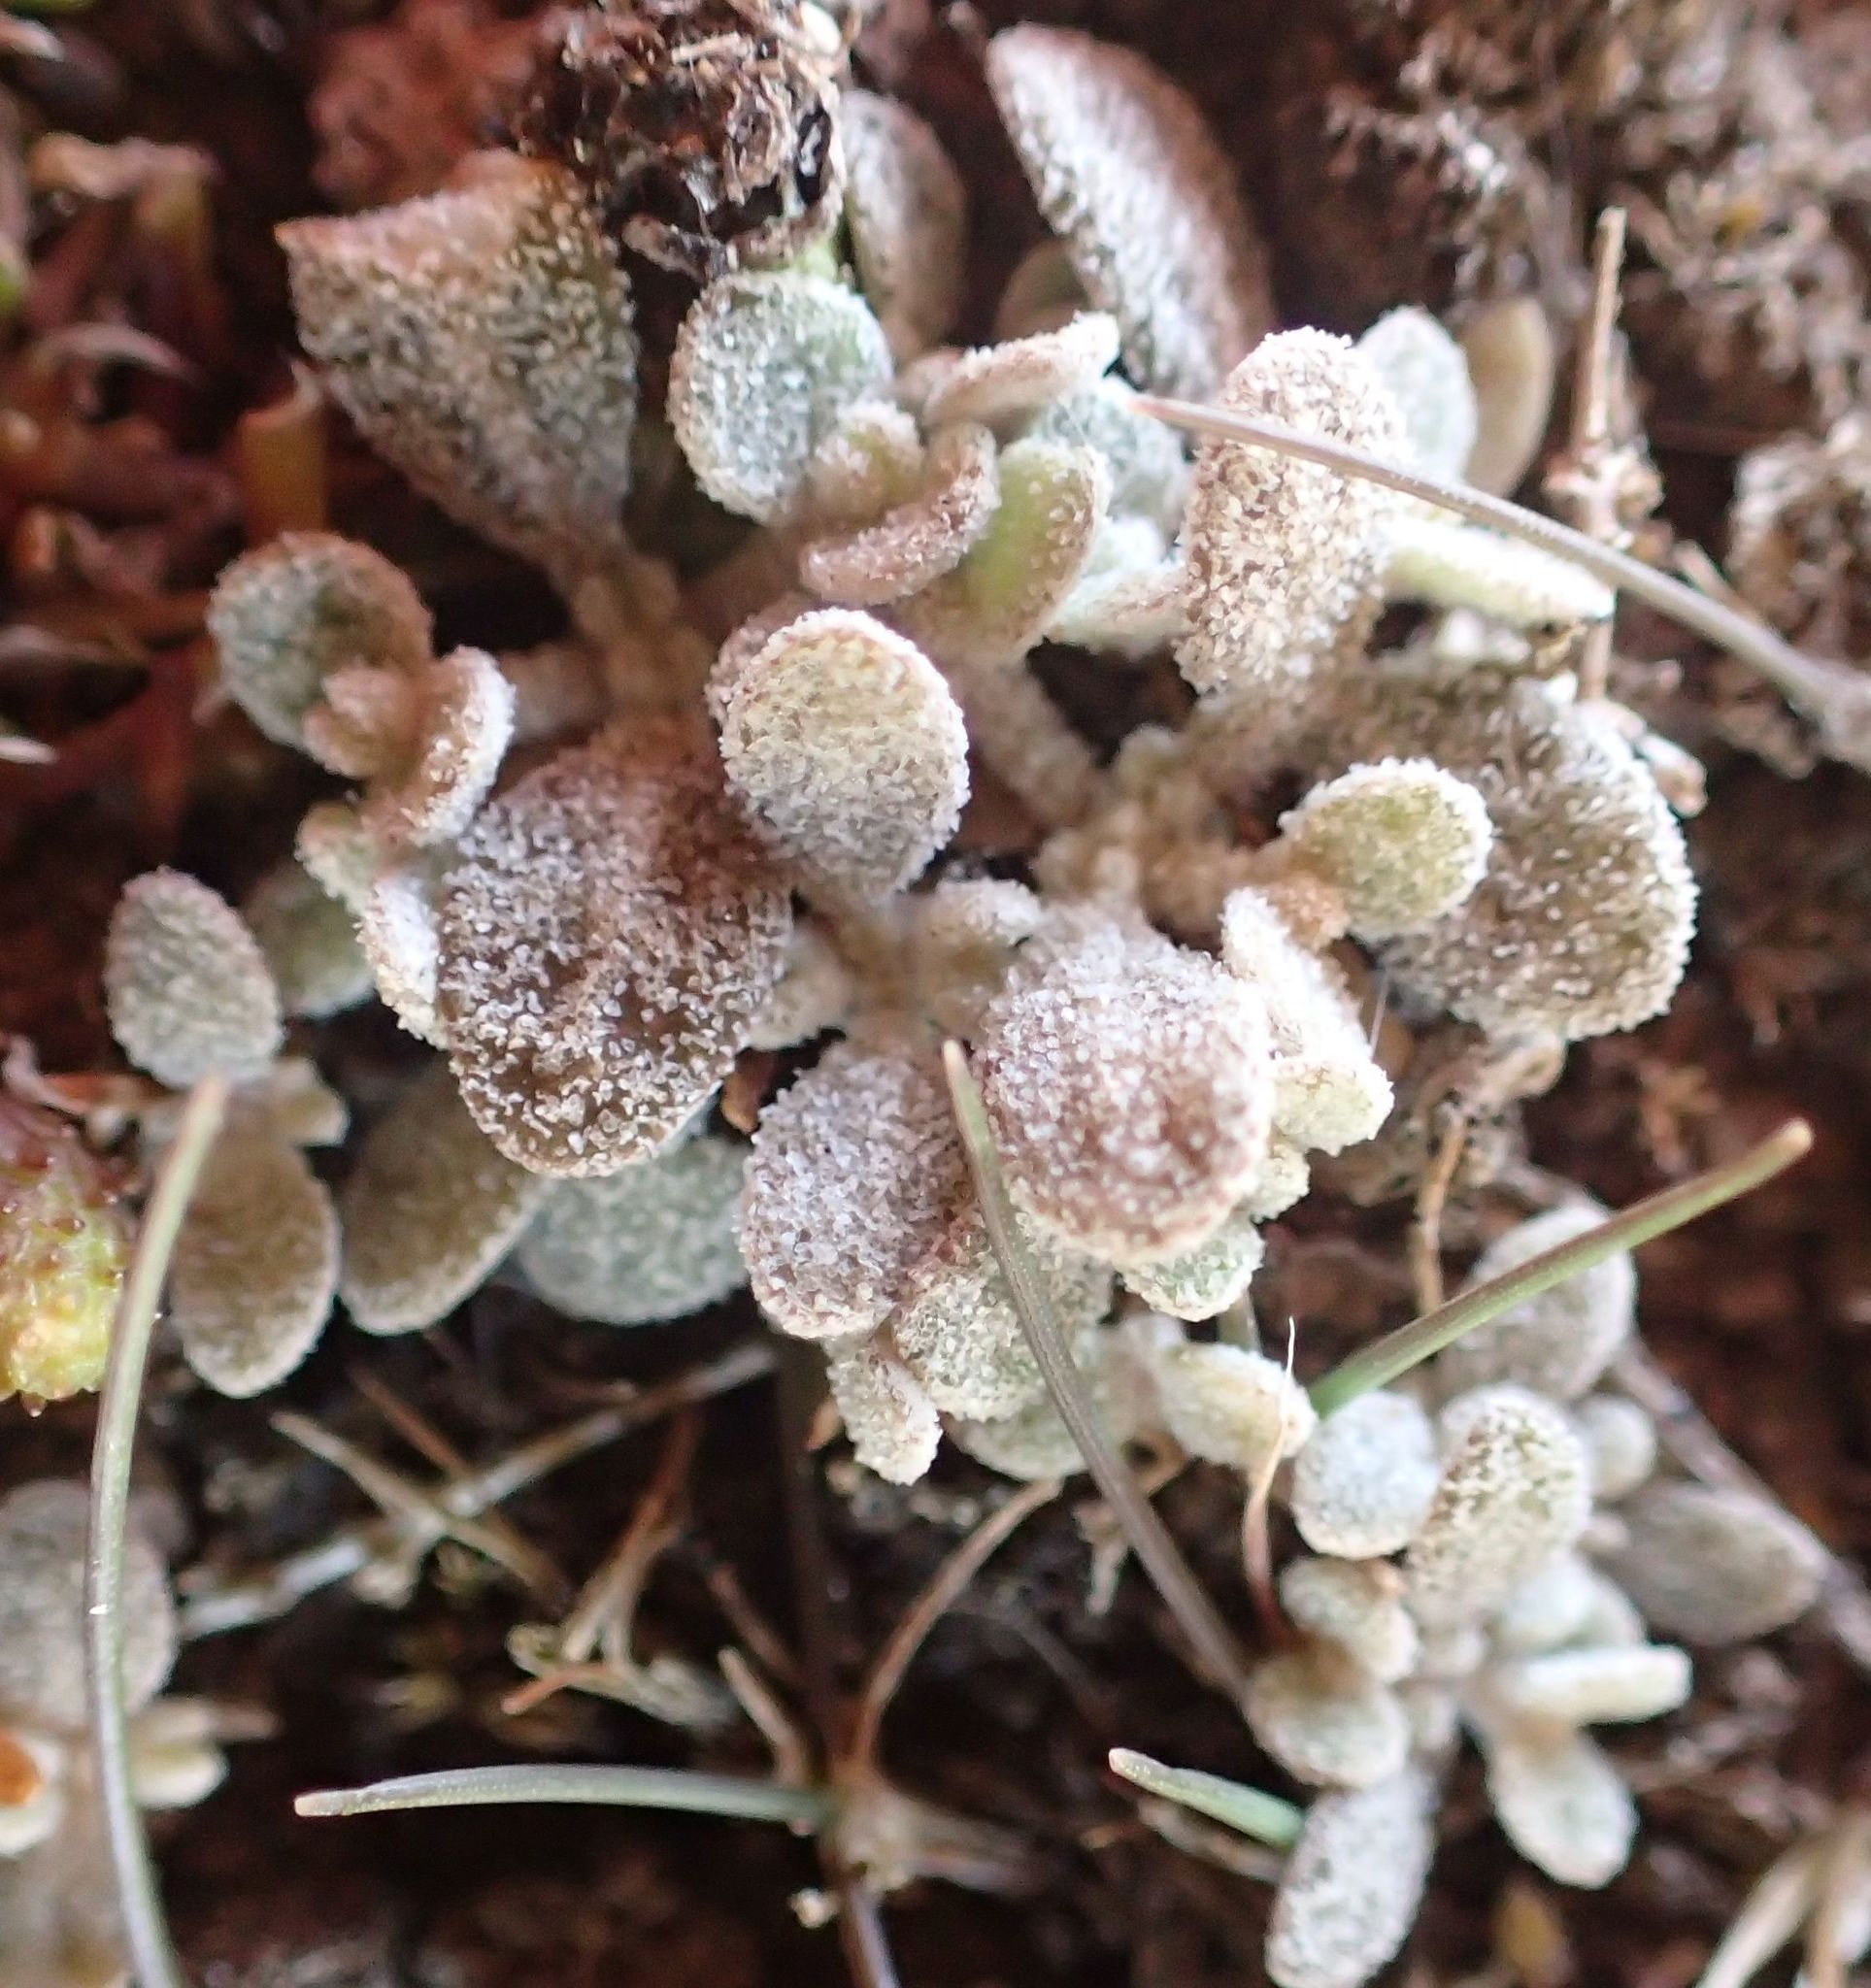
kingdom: Plantae
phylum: Tracheophyta
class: Magnoliopsida
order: Caryophyllales
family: Amaranthaceae
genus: Atriplex
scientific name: Atriplex buchananii
